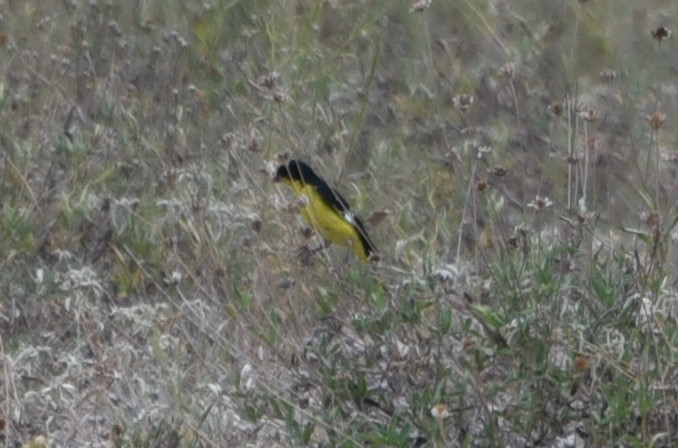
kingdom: Animalia
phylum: Chordata
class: Aves
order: Passeriformes
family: Fringillidae
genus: Spinus
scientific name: Spinus psaltria
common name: Lesser goldfinch
